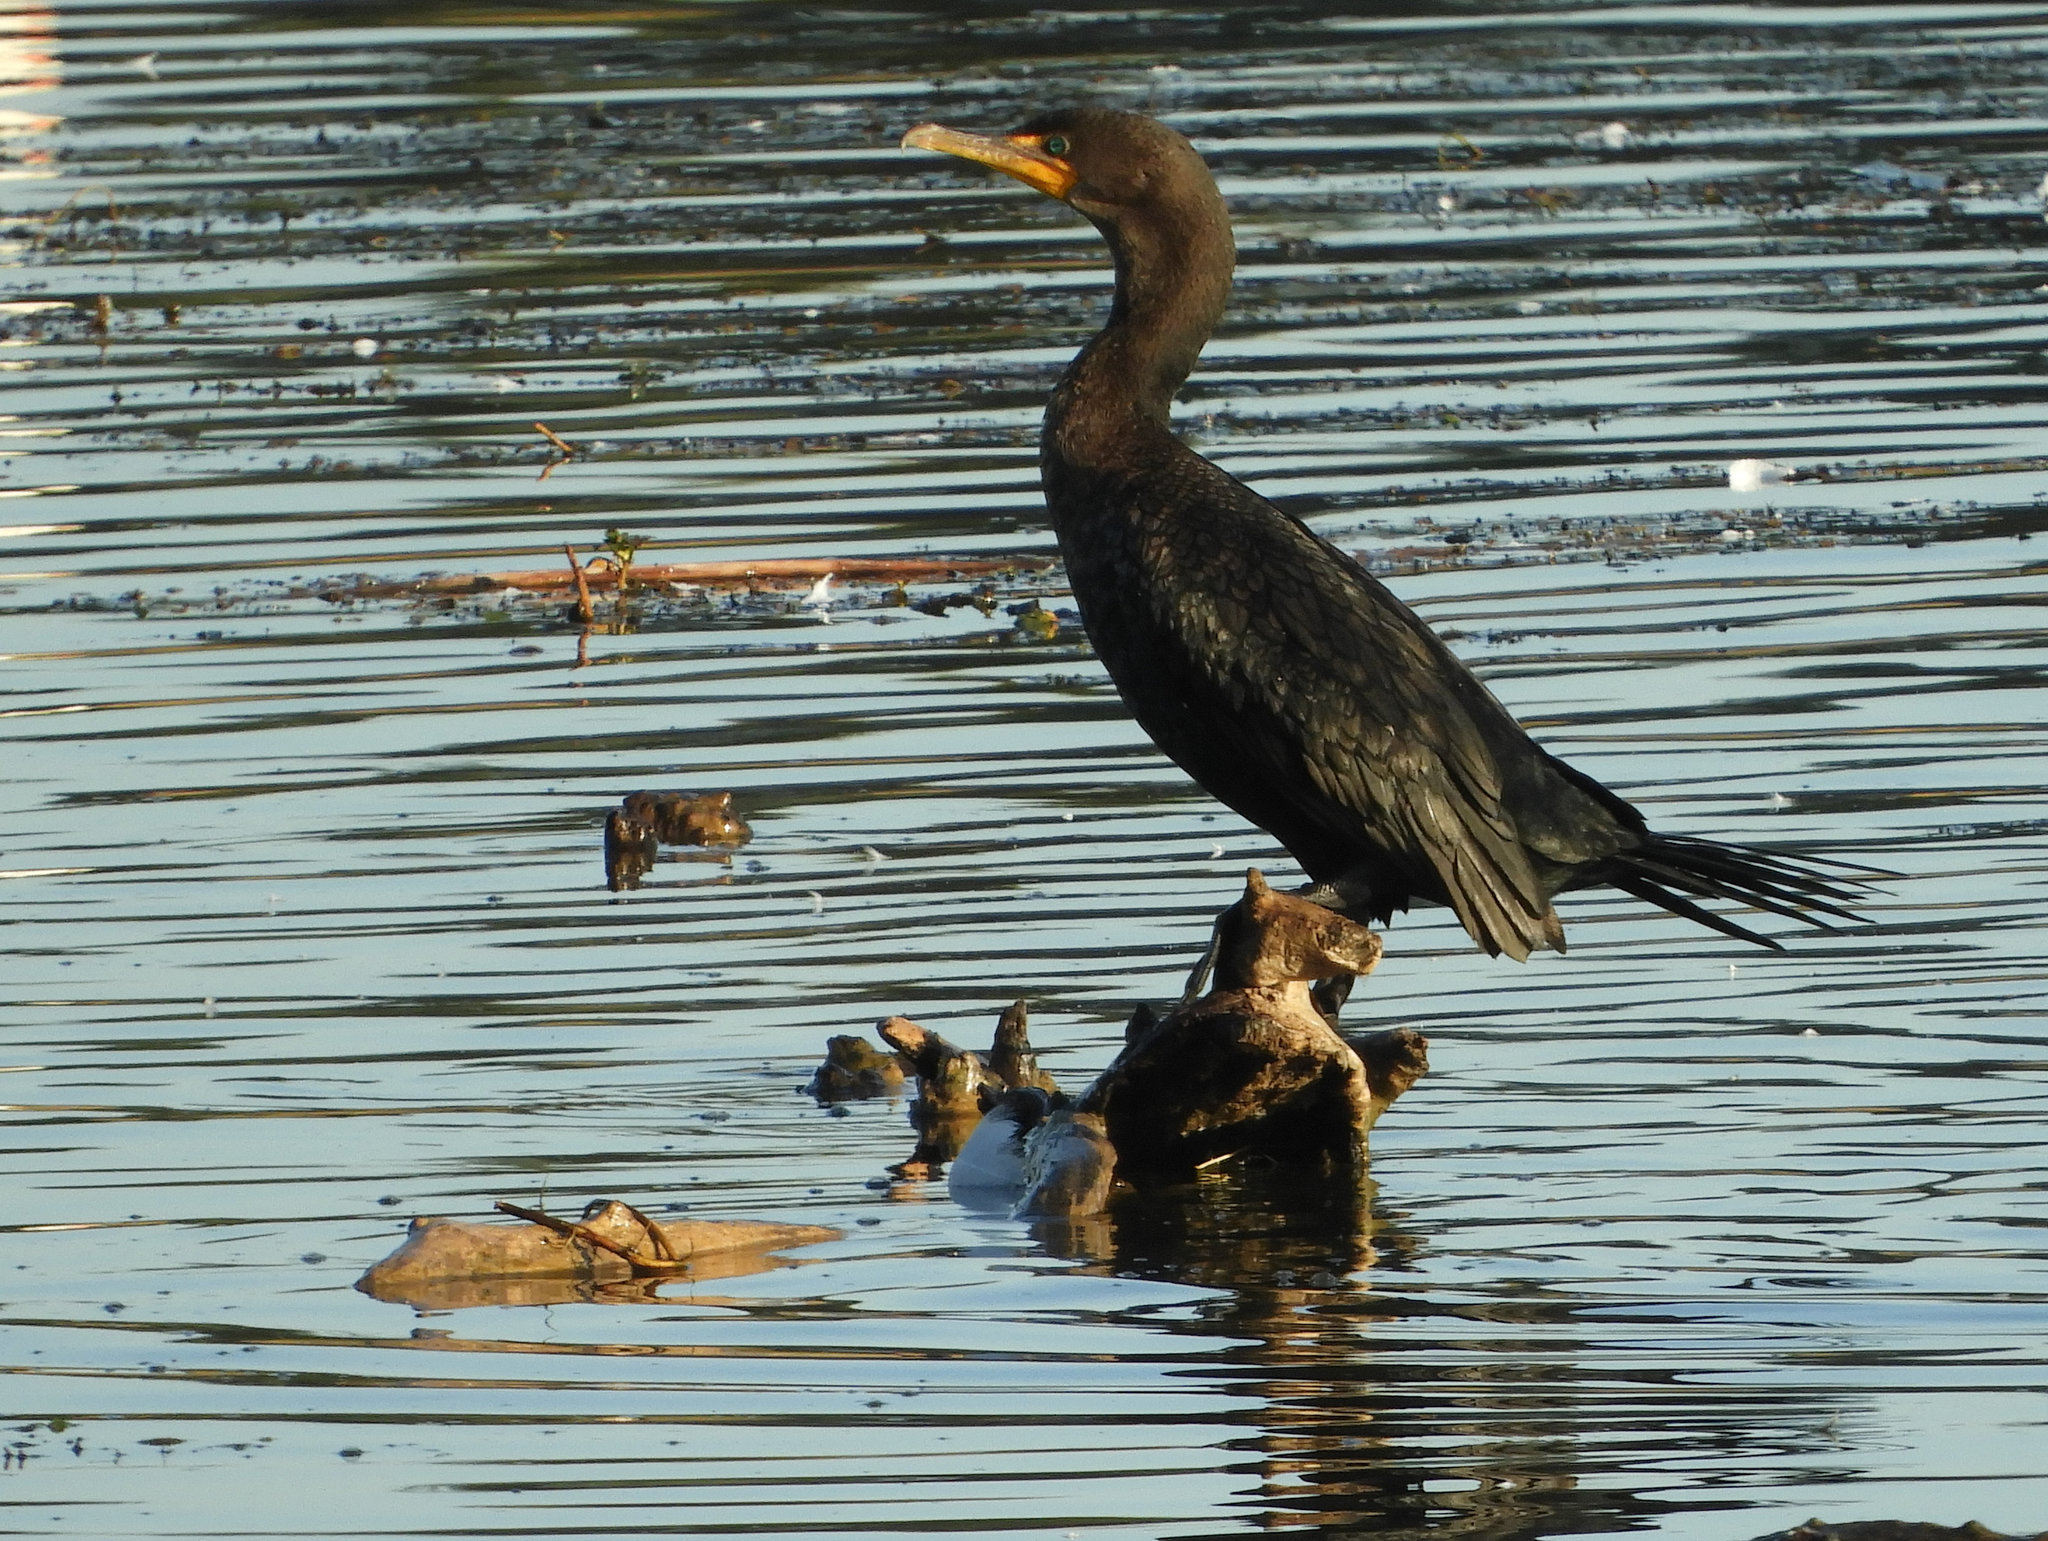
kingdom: Animalia
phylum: Chordata
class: Aves
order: Suliformes
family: Phalacrocoracidae
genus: Phalacrocorax
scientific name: Phalacrocorax auritus
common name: Double-crested cormorant
